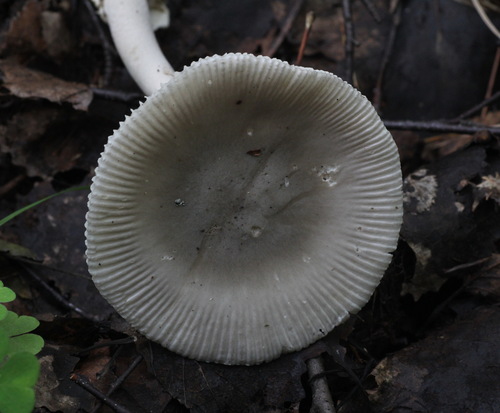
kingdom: Fungi
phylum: Basidiomycota
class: Agaricomycetes
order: Agaricales
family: Amanitaceae
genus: Amanita
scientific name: Amanita vaginata
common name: Grisette
